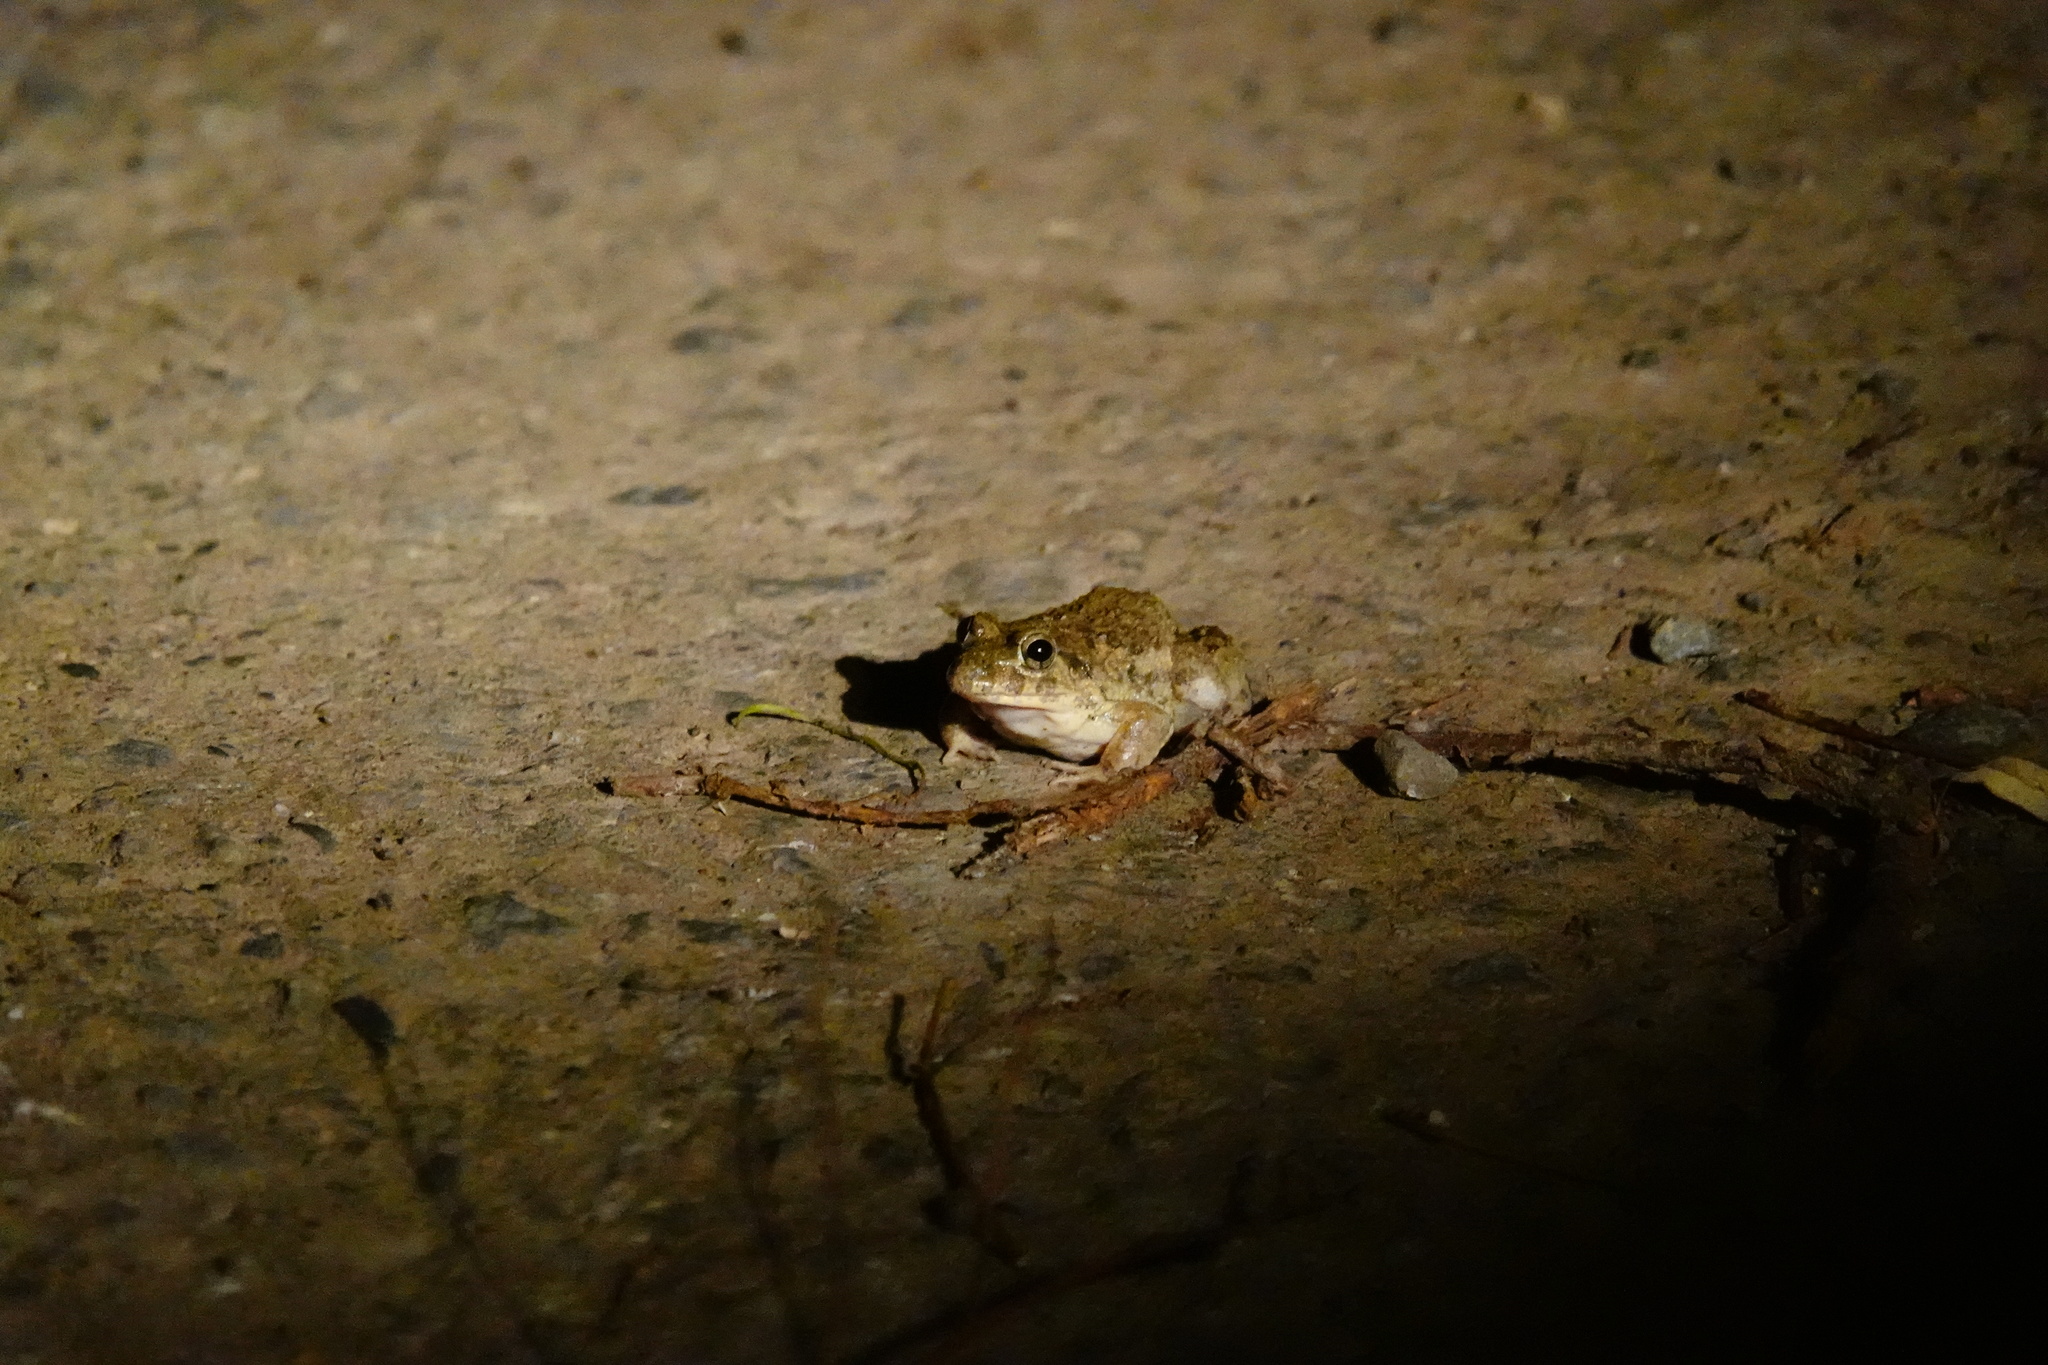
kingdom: Animalia
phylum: Chordata
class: Amphibia
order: Anura
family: Dicroglossidae
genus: Fejervarya
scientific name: Fejervarya limnocharis
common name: Asian grass frog/common pond frog/field frog/grass frog/indian rice frog
